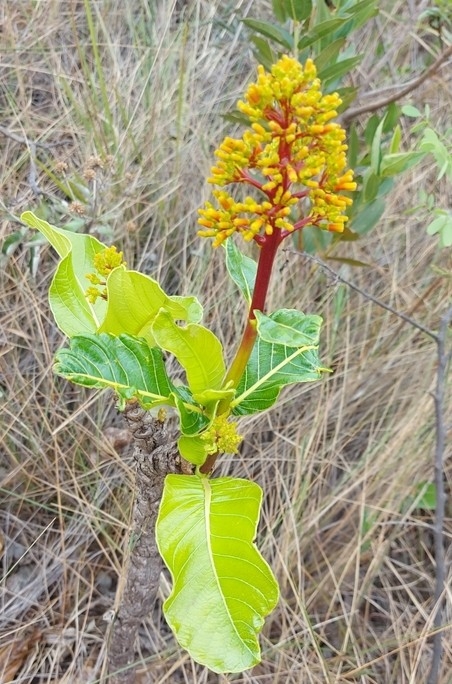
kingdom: Plantae
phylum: Tracheophyta
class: Magnoliopsida
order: Gentianales
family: Rubiaceae
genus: Palicourea
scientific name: Palicourea rigida
